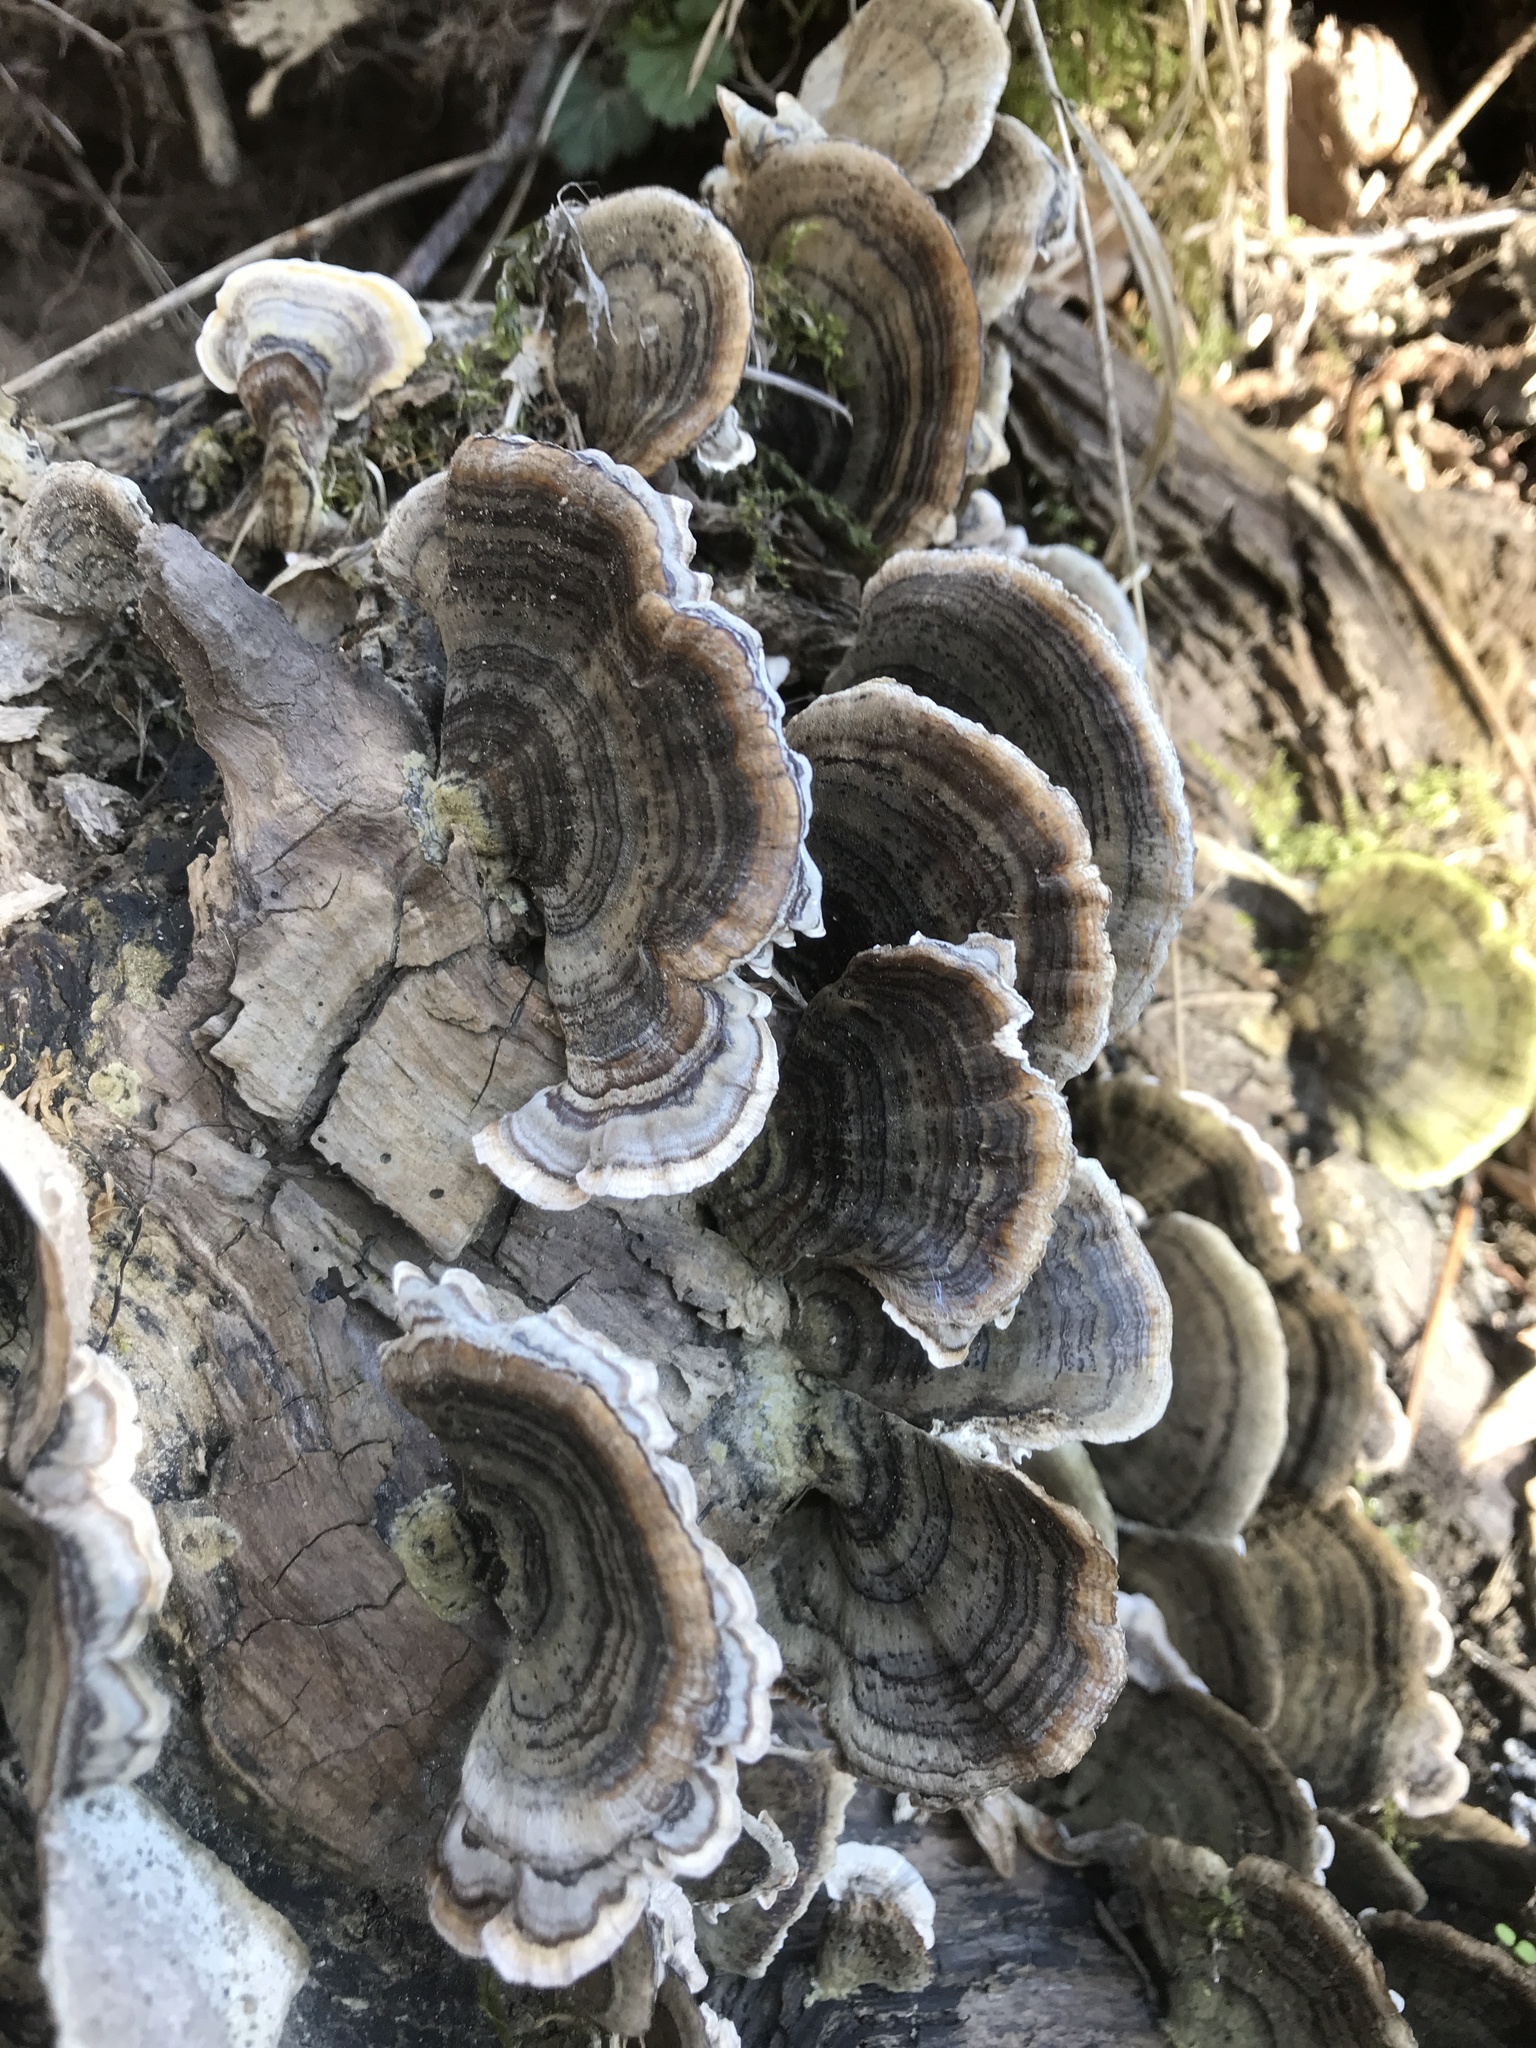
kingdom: Fungi
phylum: Basidiomycota
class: Agaricomycetes
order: Polyporales
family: Polyporaceae
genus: Trametes
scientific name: Trametes versicolor
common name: Turkeytail
